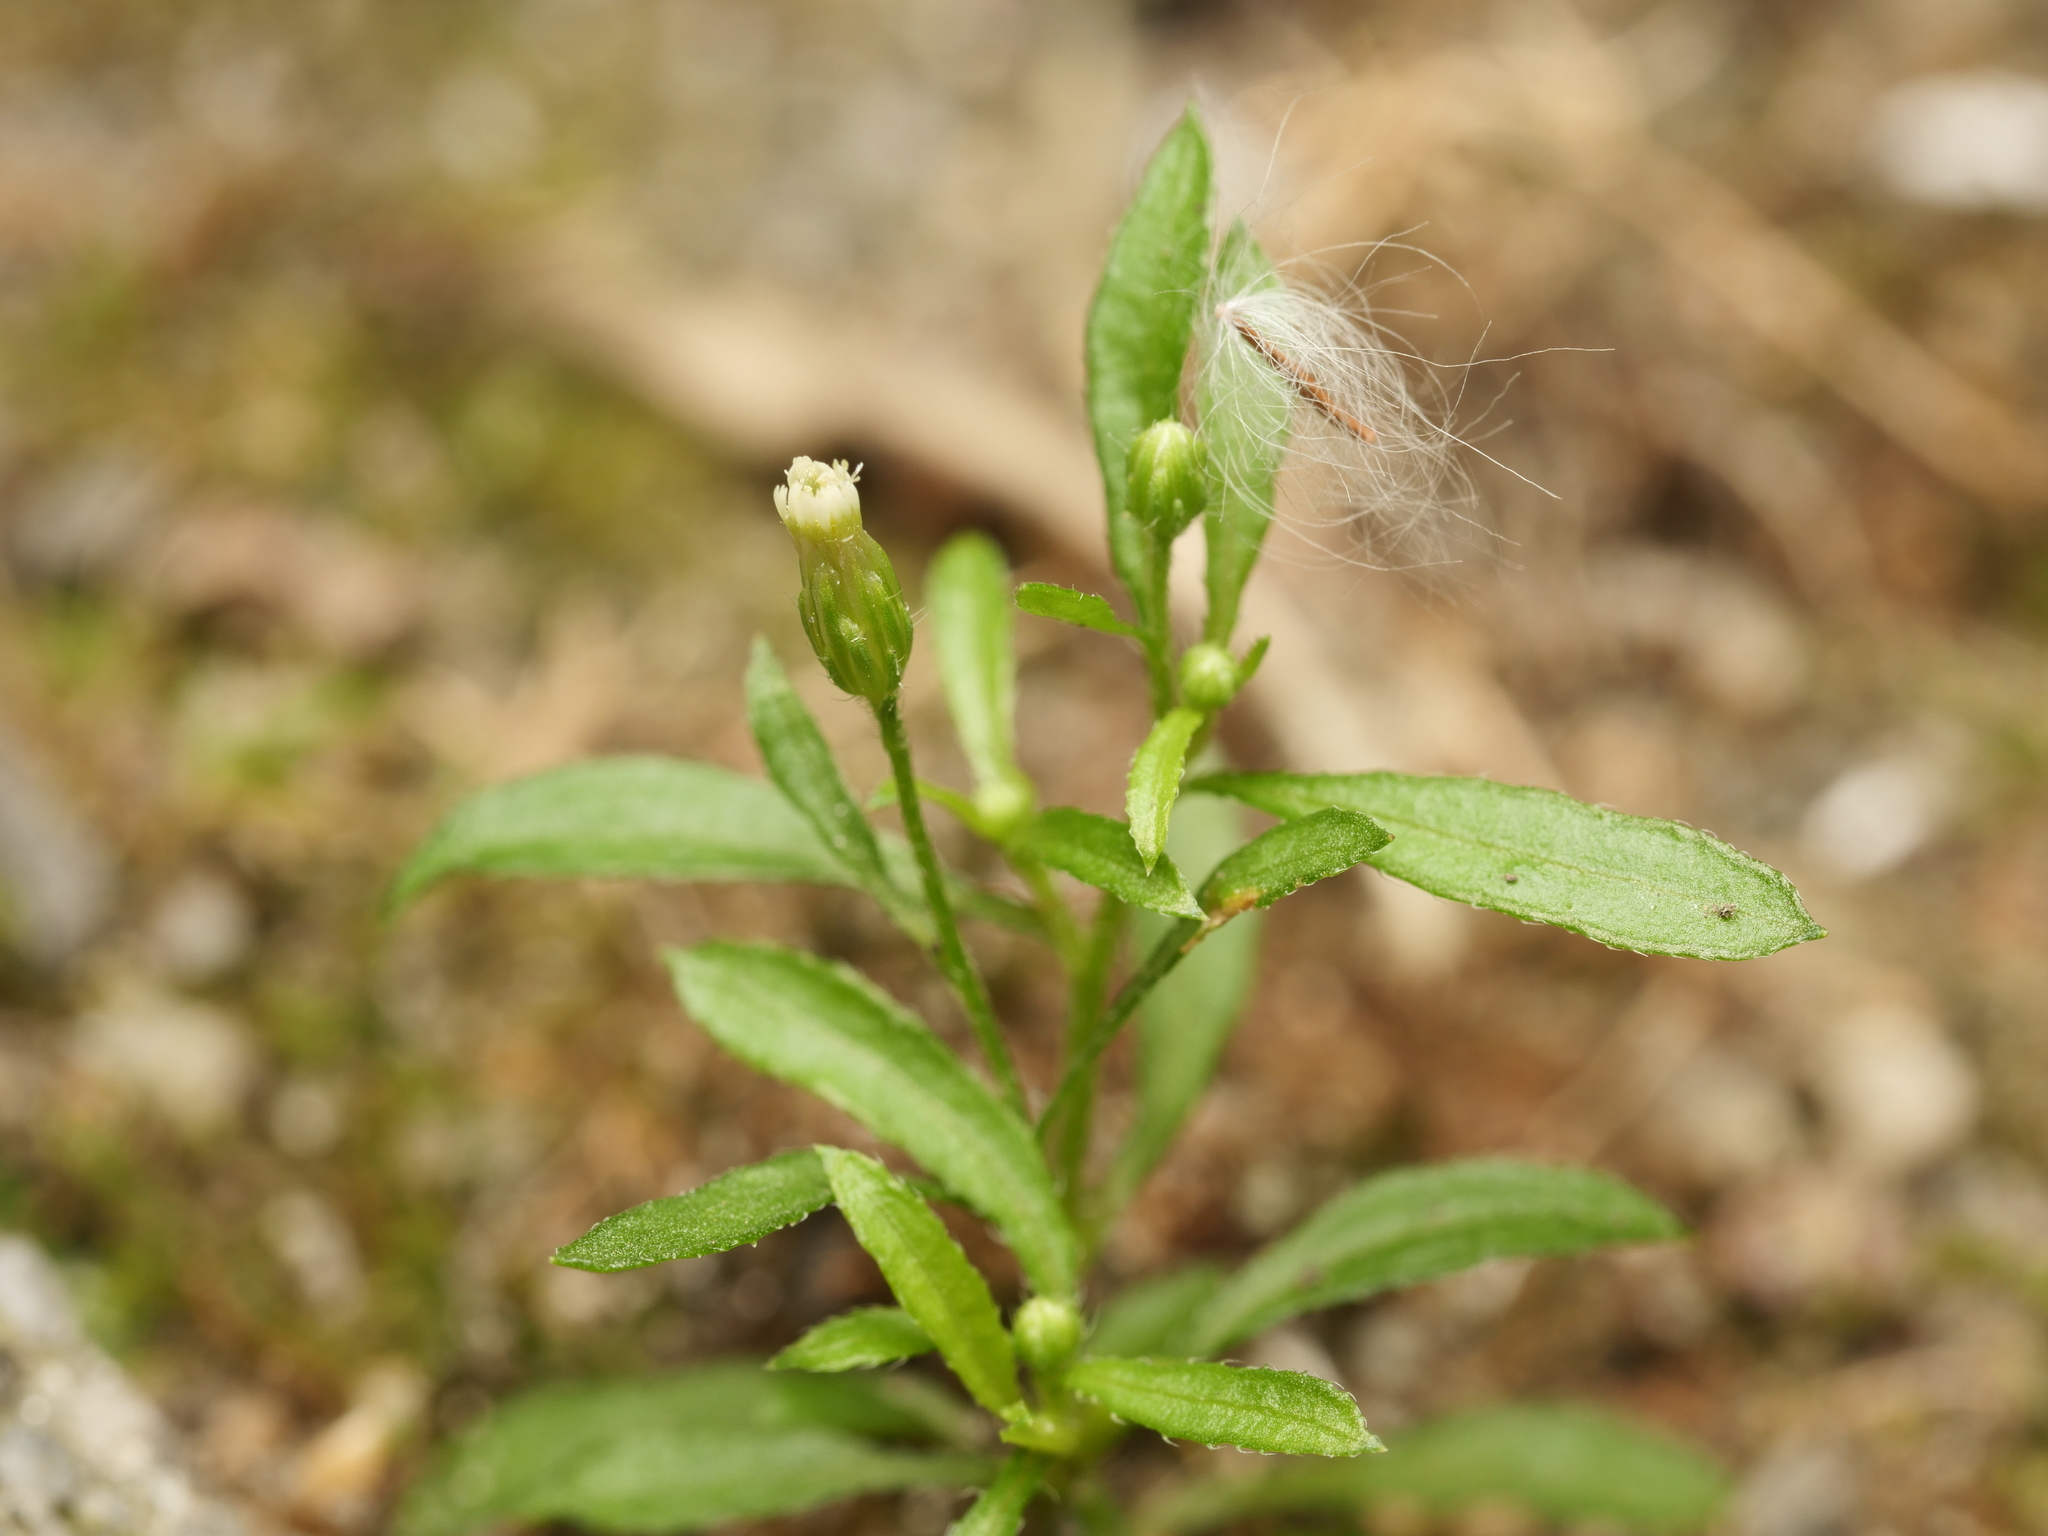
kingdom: Plantae
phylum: Tracheophyta
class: Magnoliopsida
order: Asterales
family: Asteraceae
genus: Erigeron
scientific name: Erigeron canadensis
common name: Canadian fleabane
